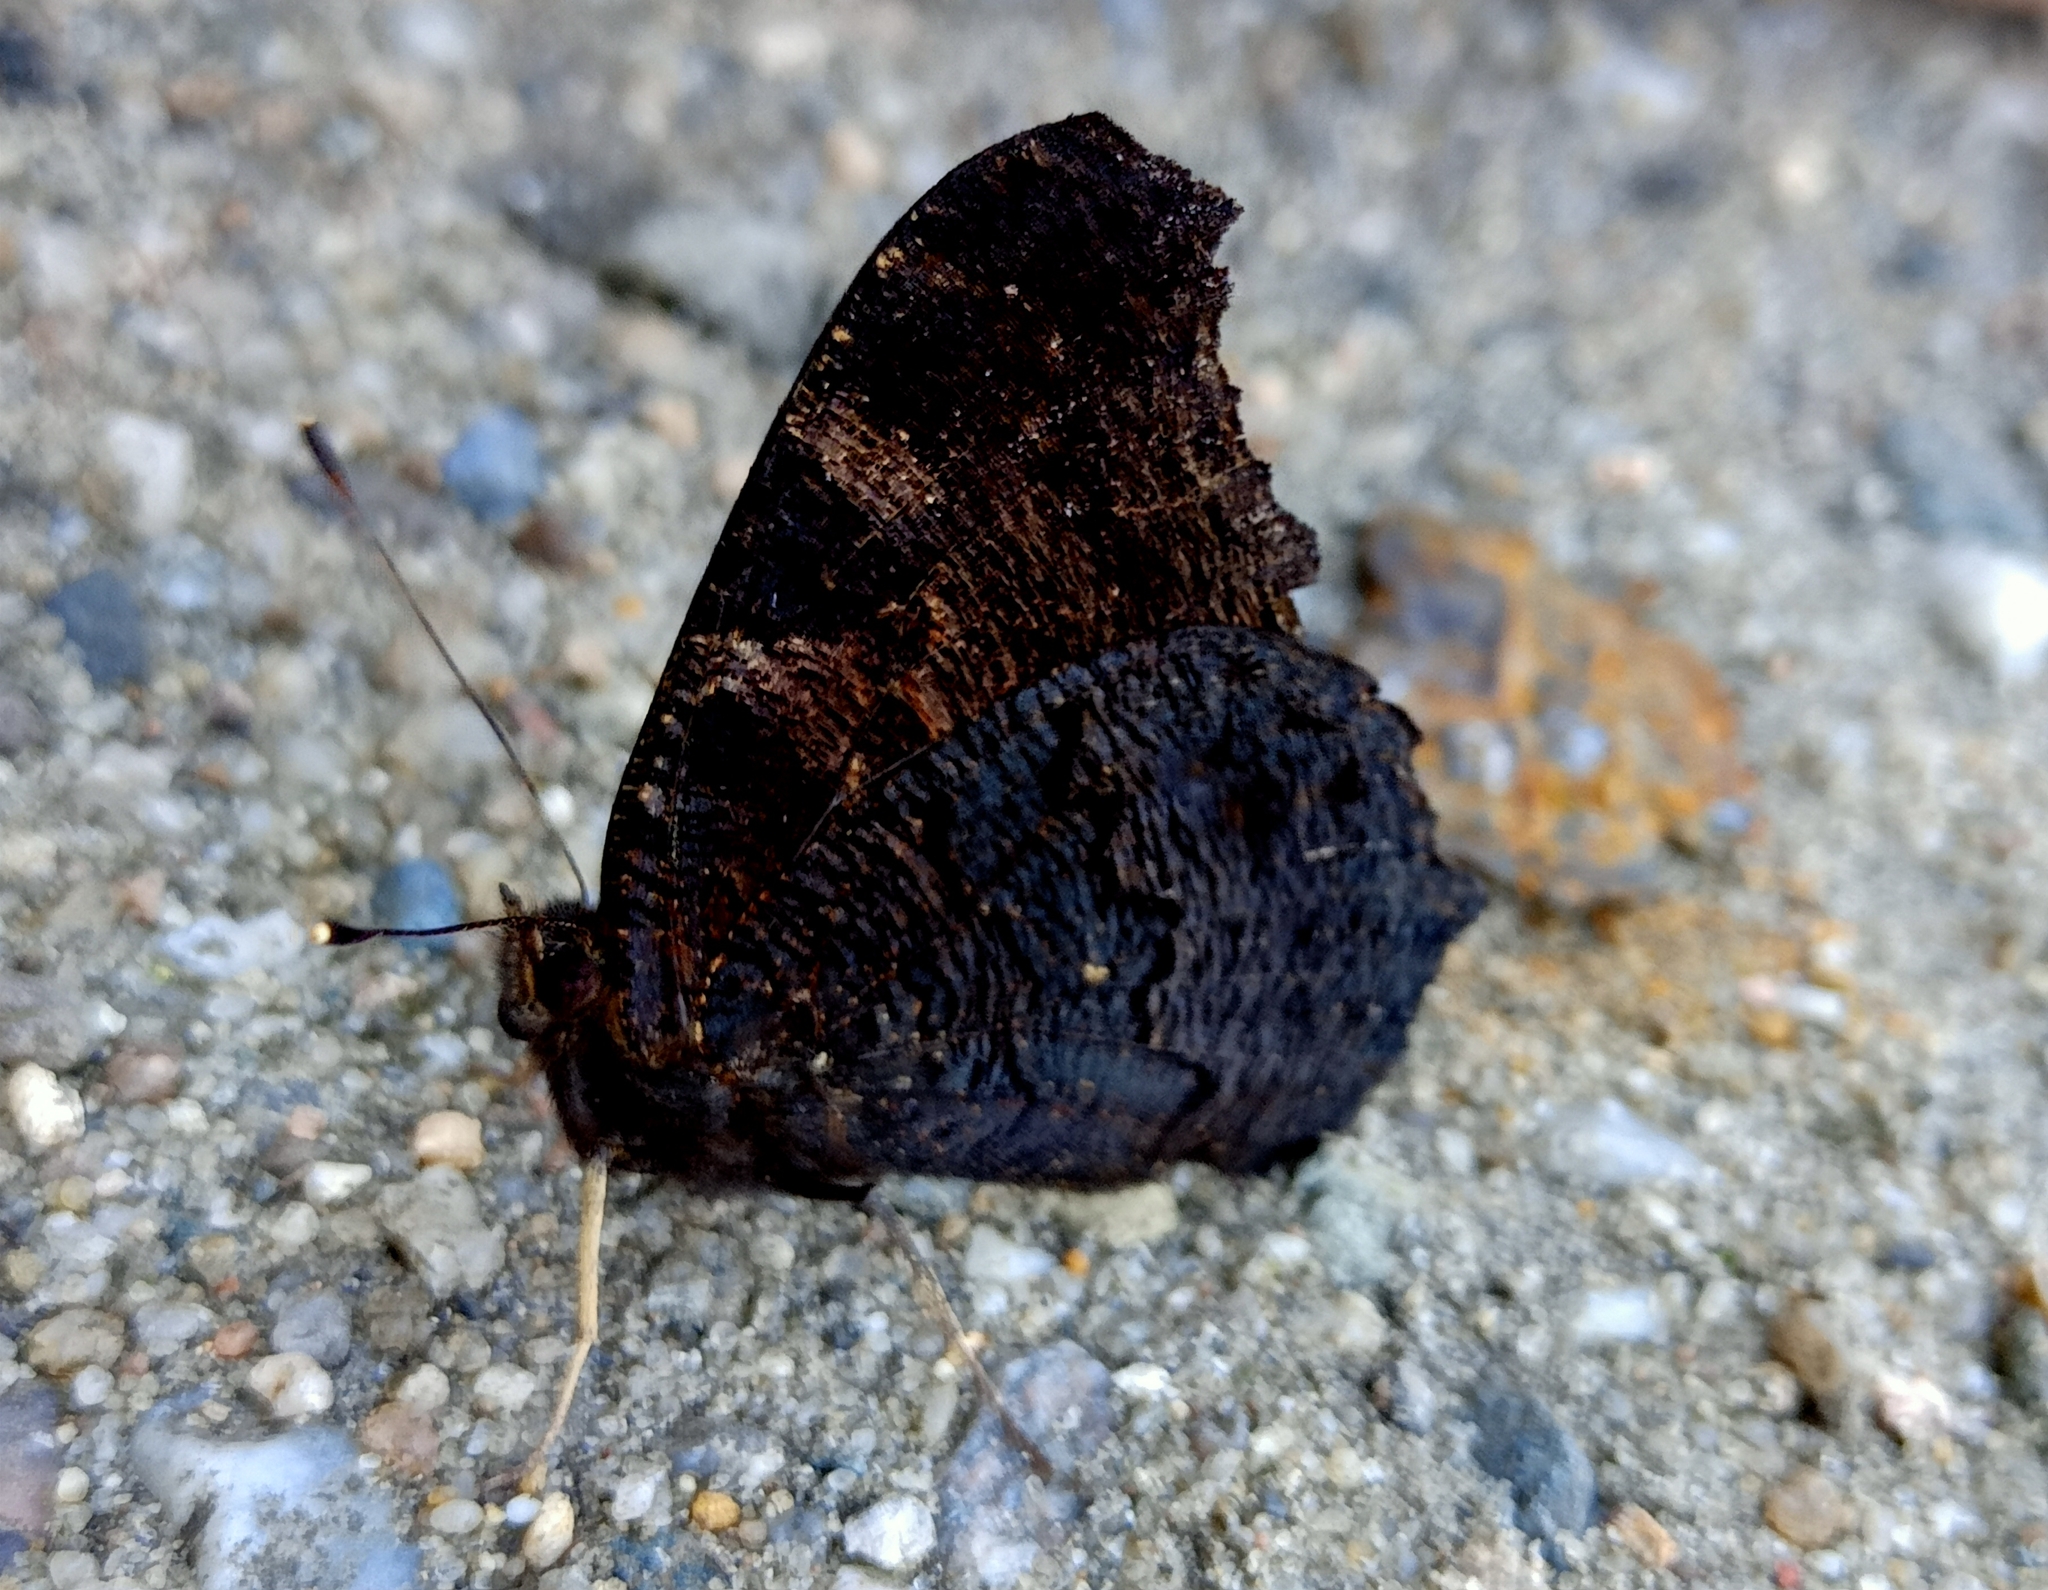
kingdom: Animalia
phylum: Arthropoda
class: Insecta
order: Lepidoptera
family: Nymphalidae
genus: Aglais
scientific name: Aglais io
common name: Peacock
